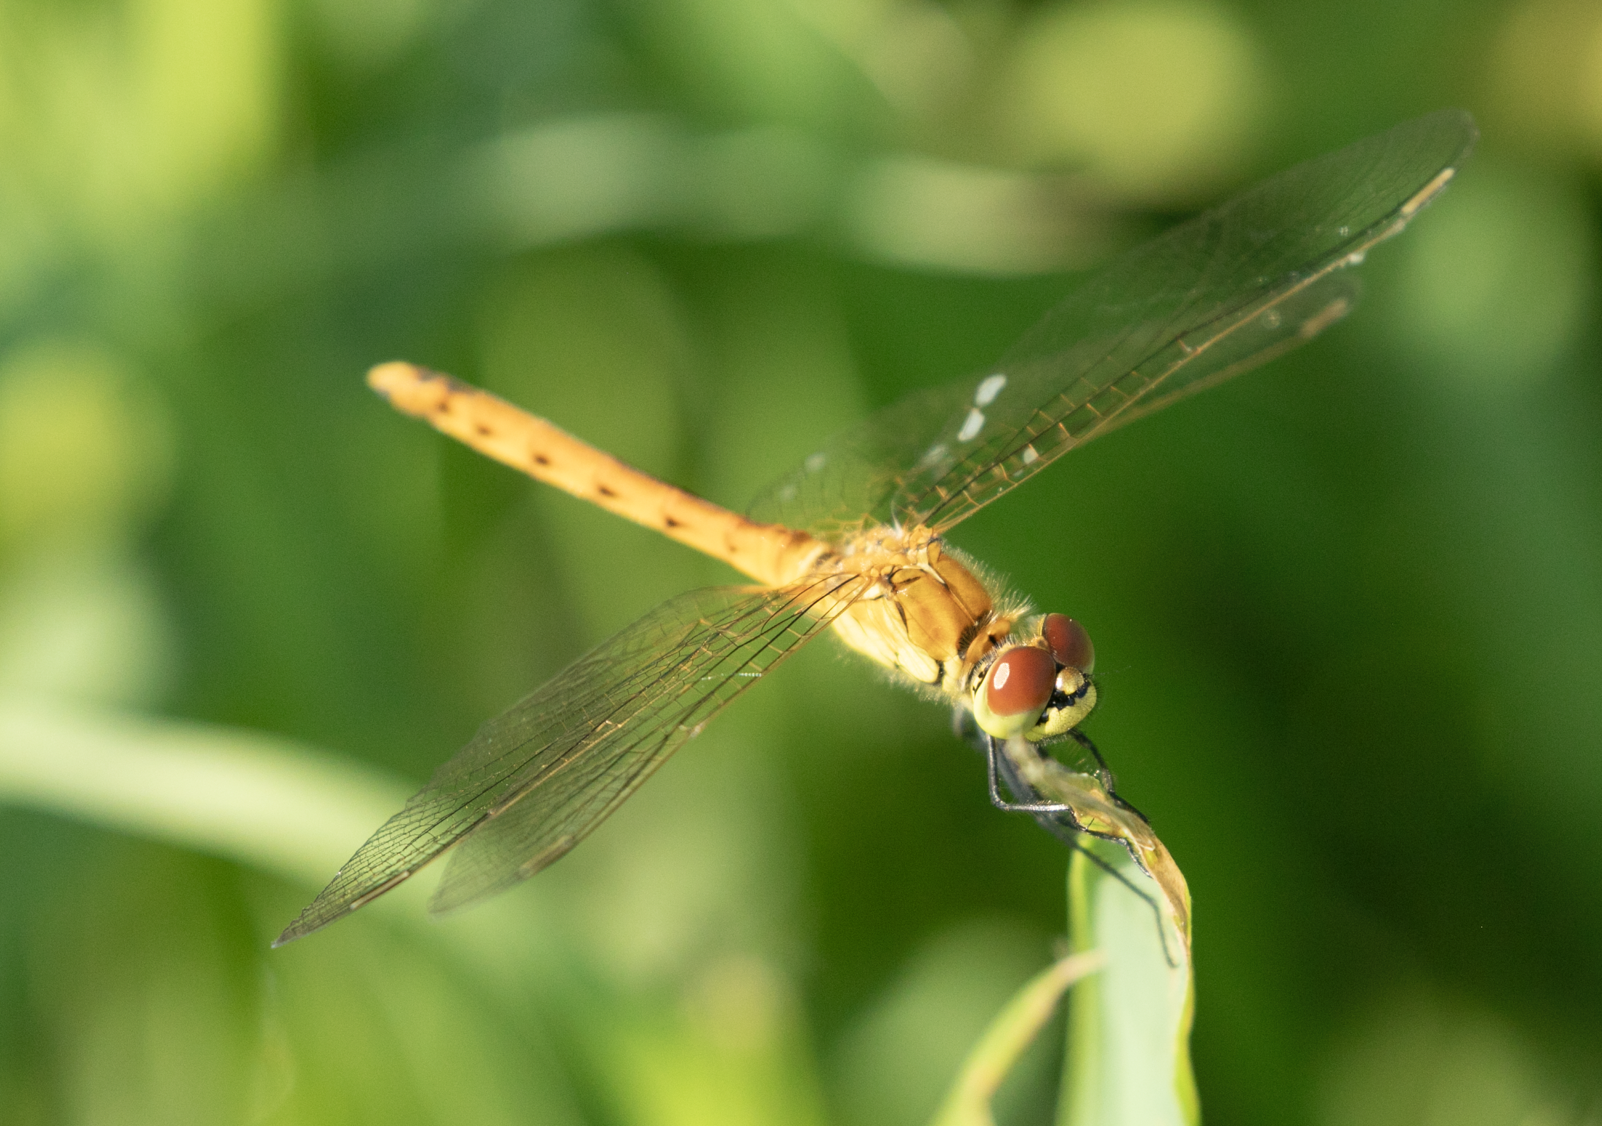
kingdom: Animalia
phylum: Arthropoda
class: Insecta
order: Odonata
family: Libellulidae
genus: Sympetrum
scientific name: Sympetrum depressiusculum
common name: Spotted darter
